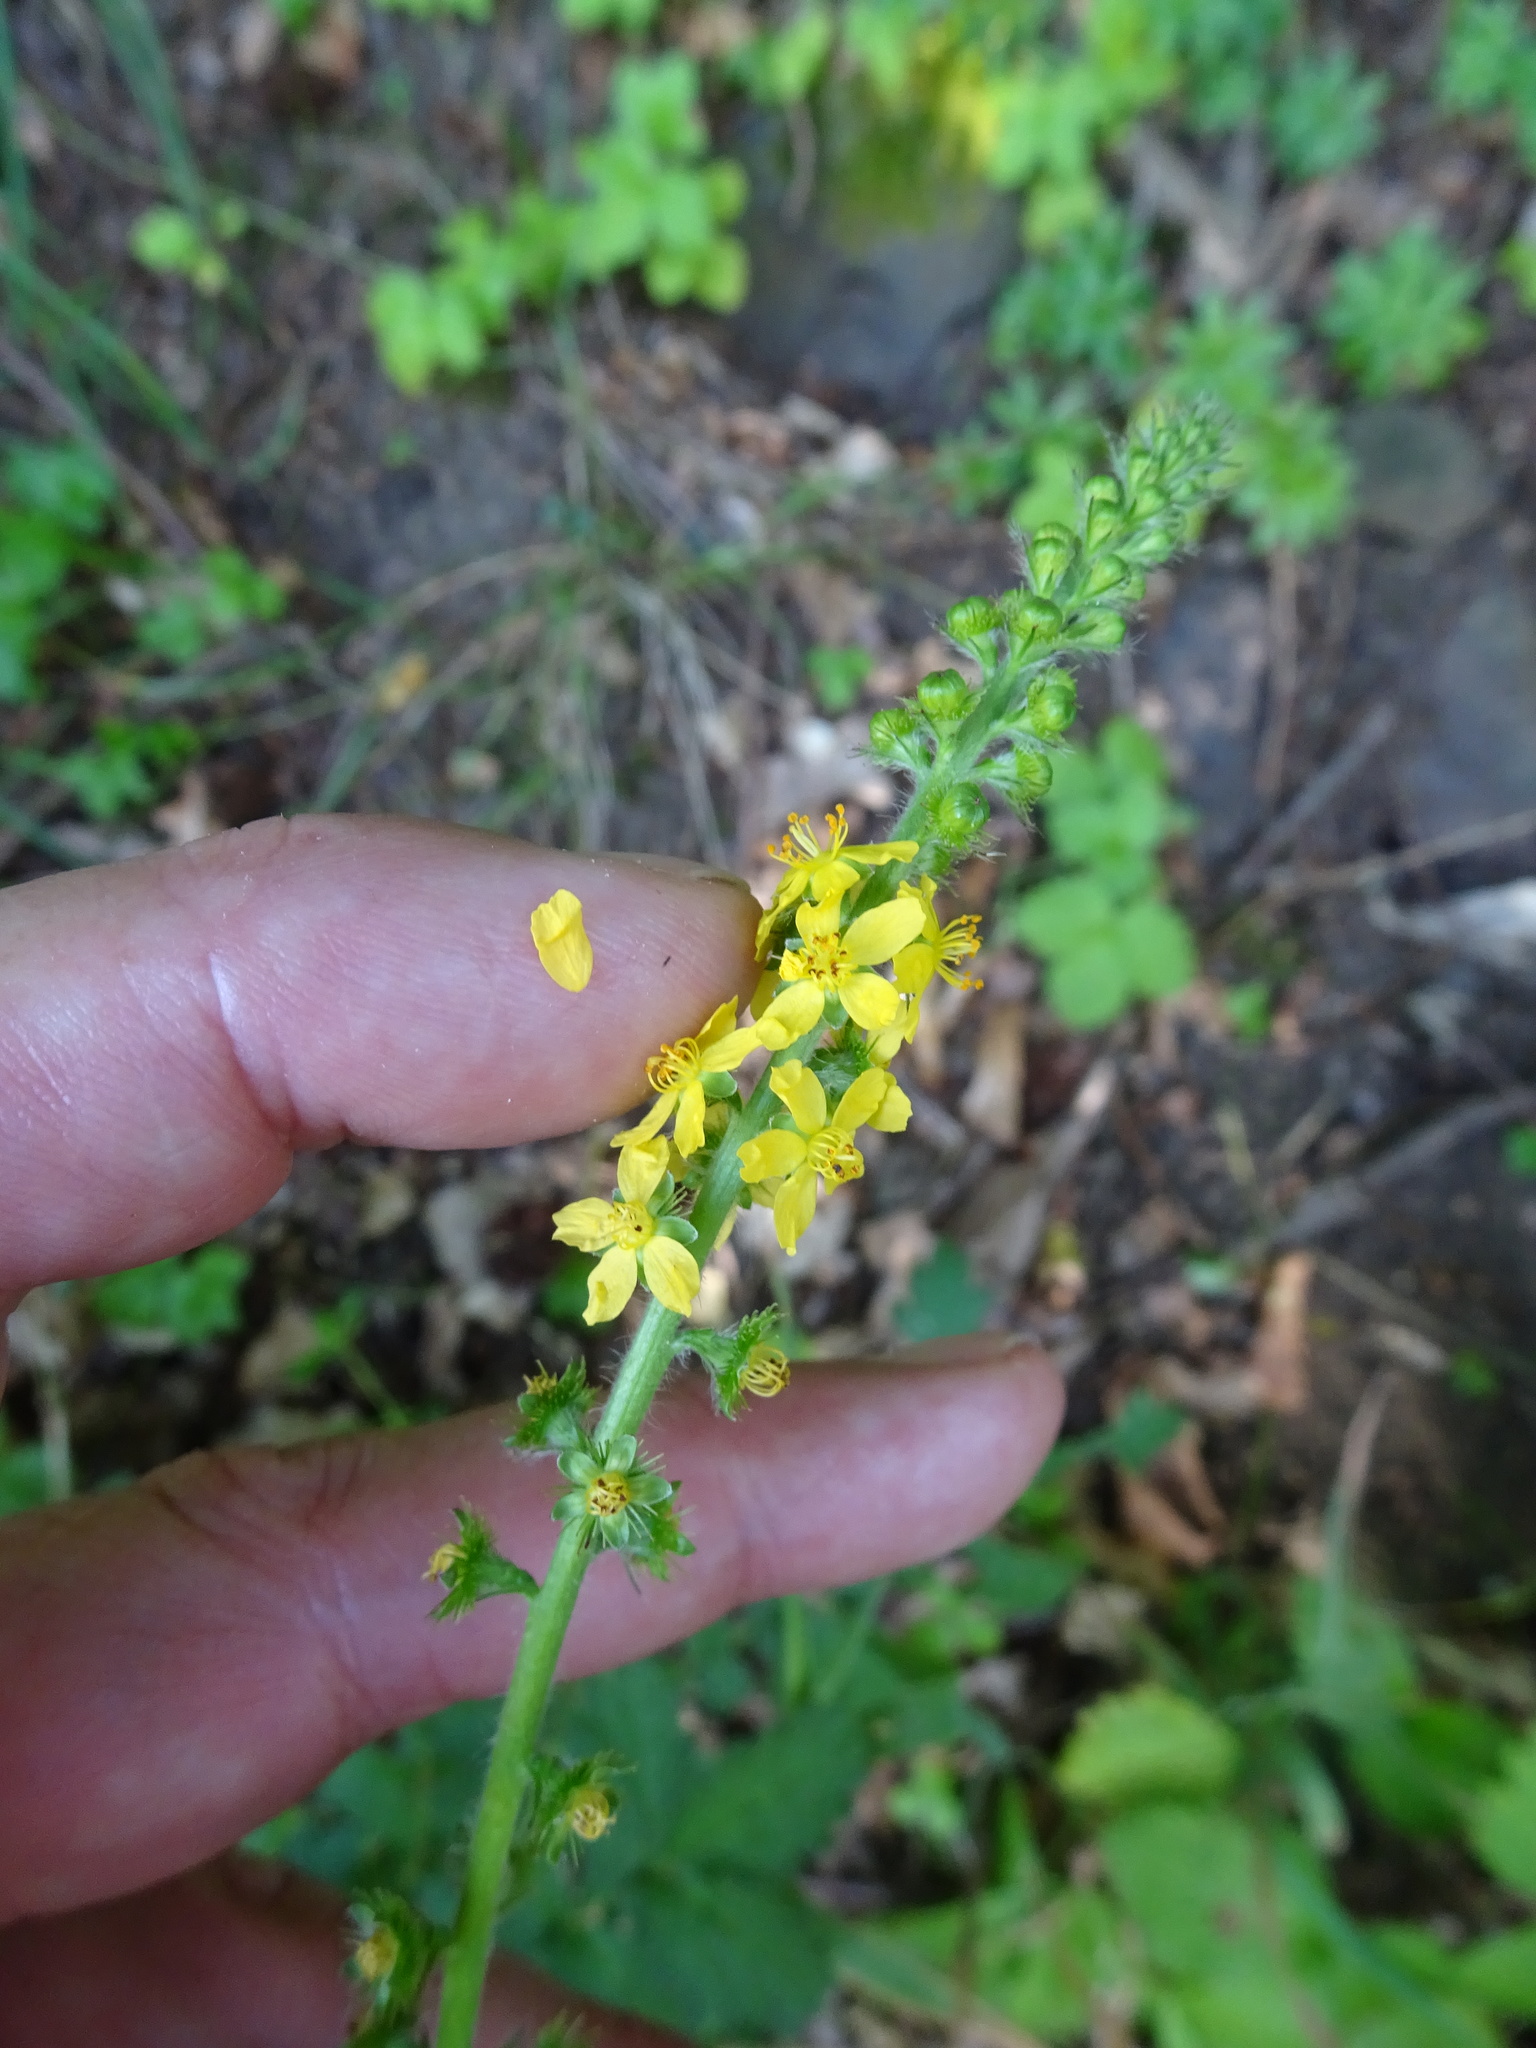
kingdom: Plantae
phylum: Tracheophyta
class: Magnoliopsida
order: Rosales
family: Rosaceae
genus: Agrimonia
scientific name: Agrimonia eupatoria
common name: Agrimony
